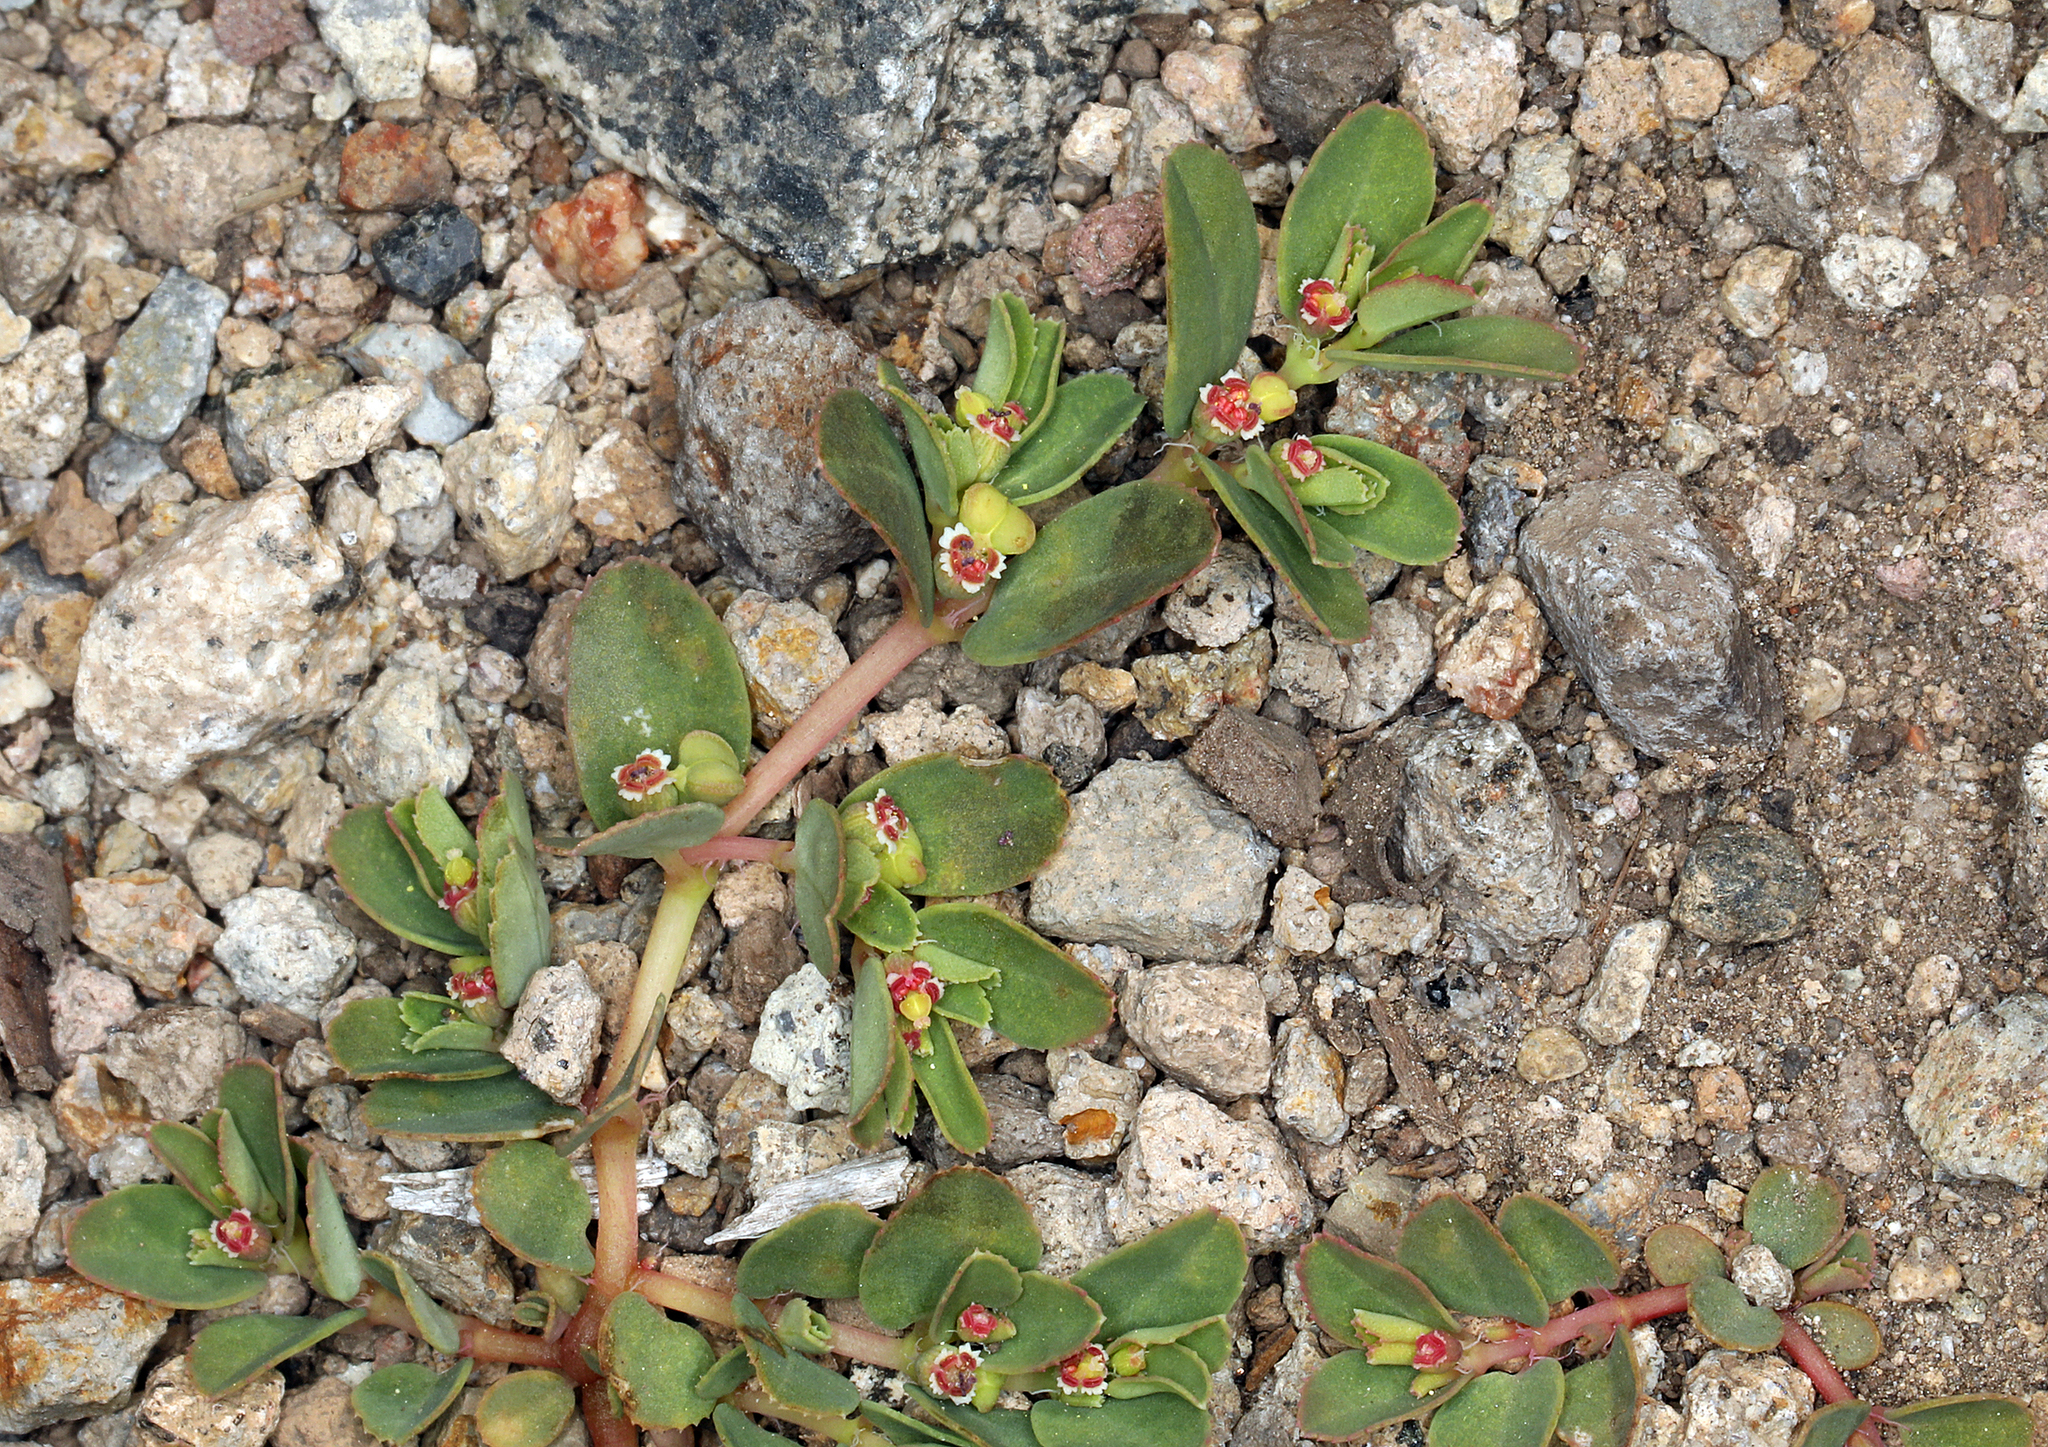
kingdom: Plantae
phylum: Tracheophyta
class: Magnoliopsida
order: Malpighiales
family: Euphorbiaceae
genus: Euphorbia
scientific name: Euphorbia serpillifolia
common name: Thyme-leaf spurge
